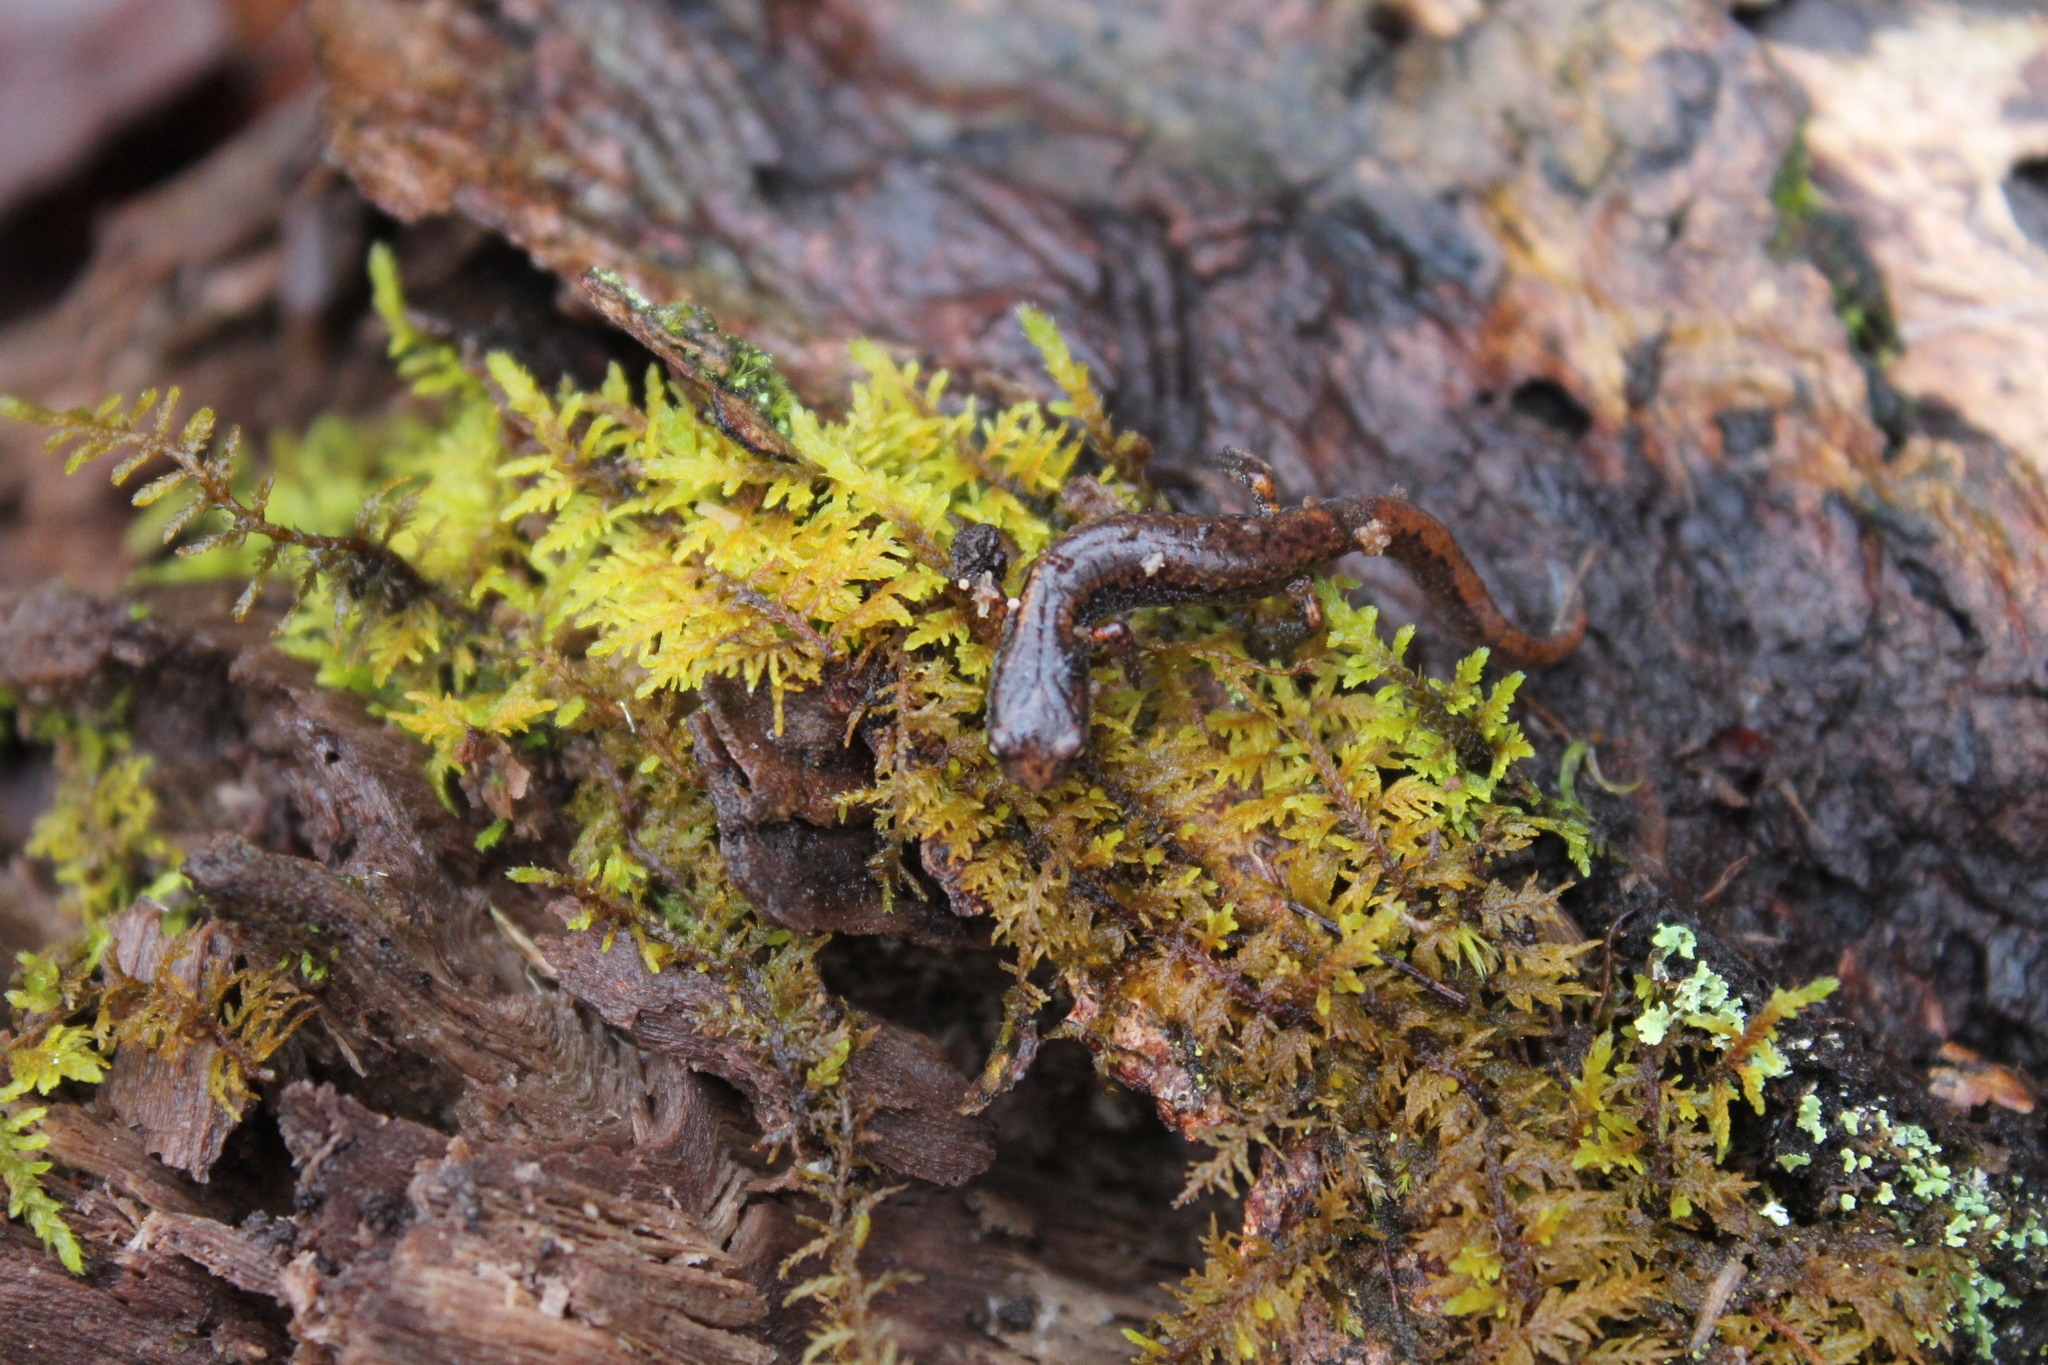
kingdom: Animalia
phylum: Chordata
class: Amphibia
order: Caudata
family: Plethodontidae
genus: Hemidactylium
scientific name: Hemidactylium scutatum
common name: Four-toed salamander
